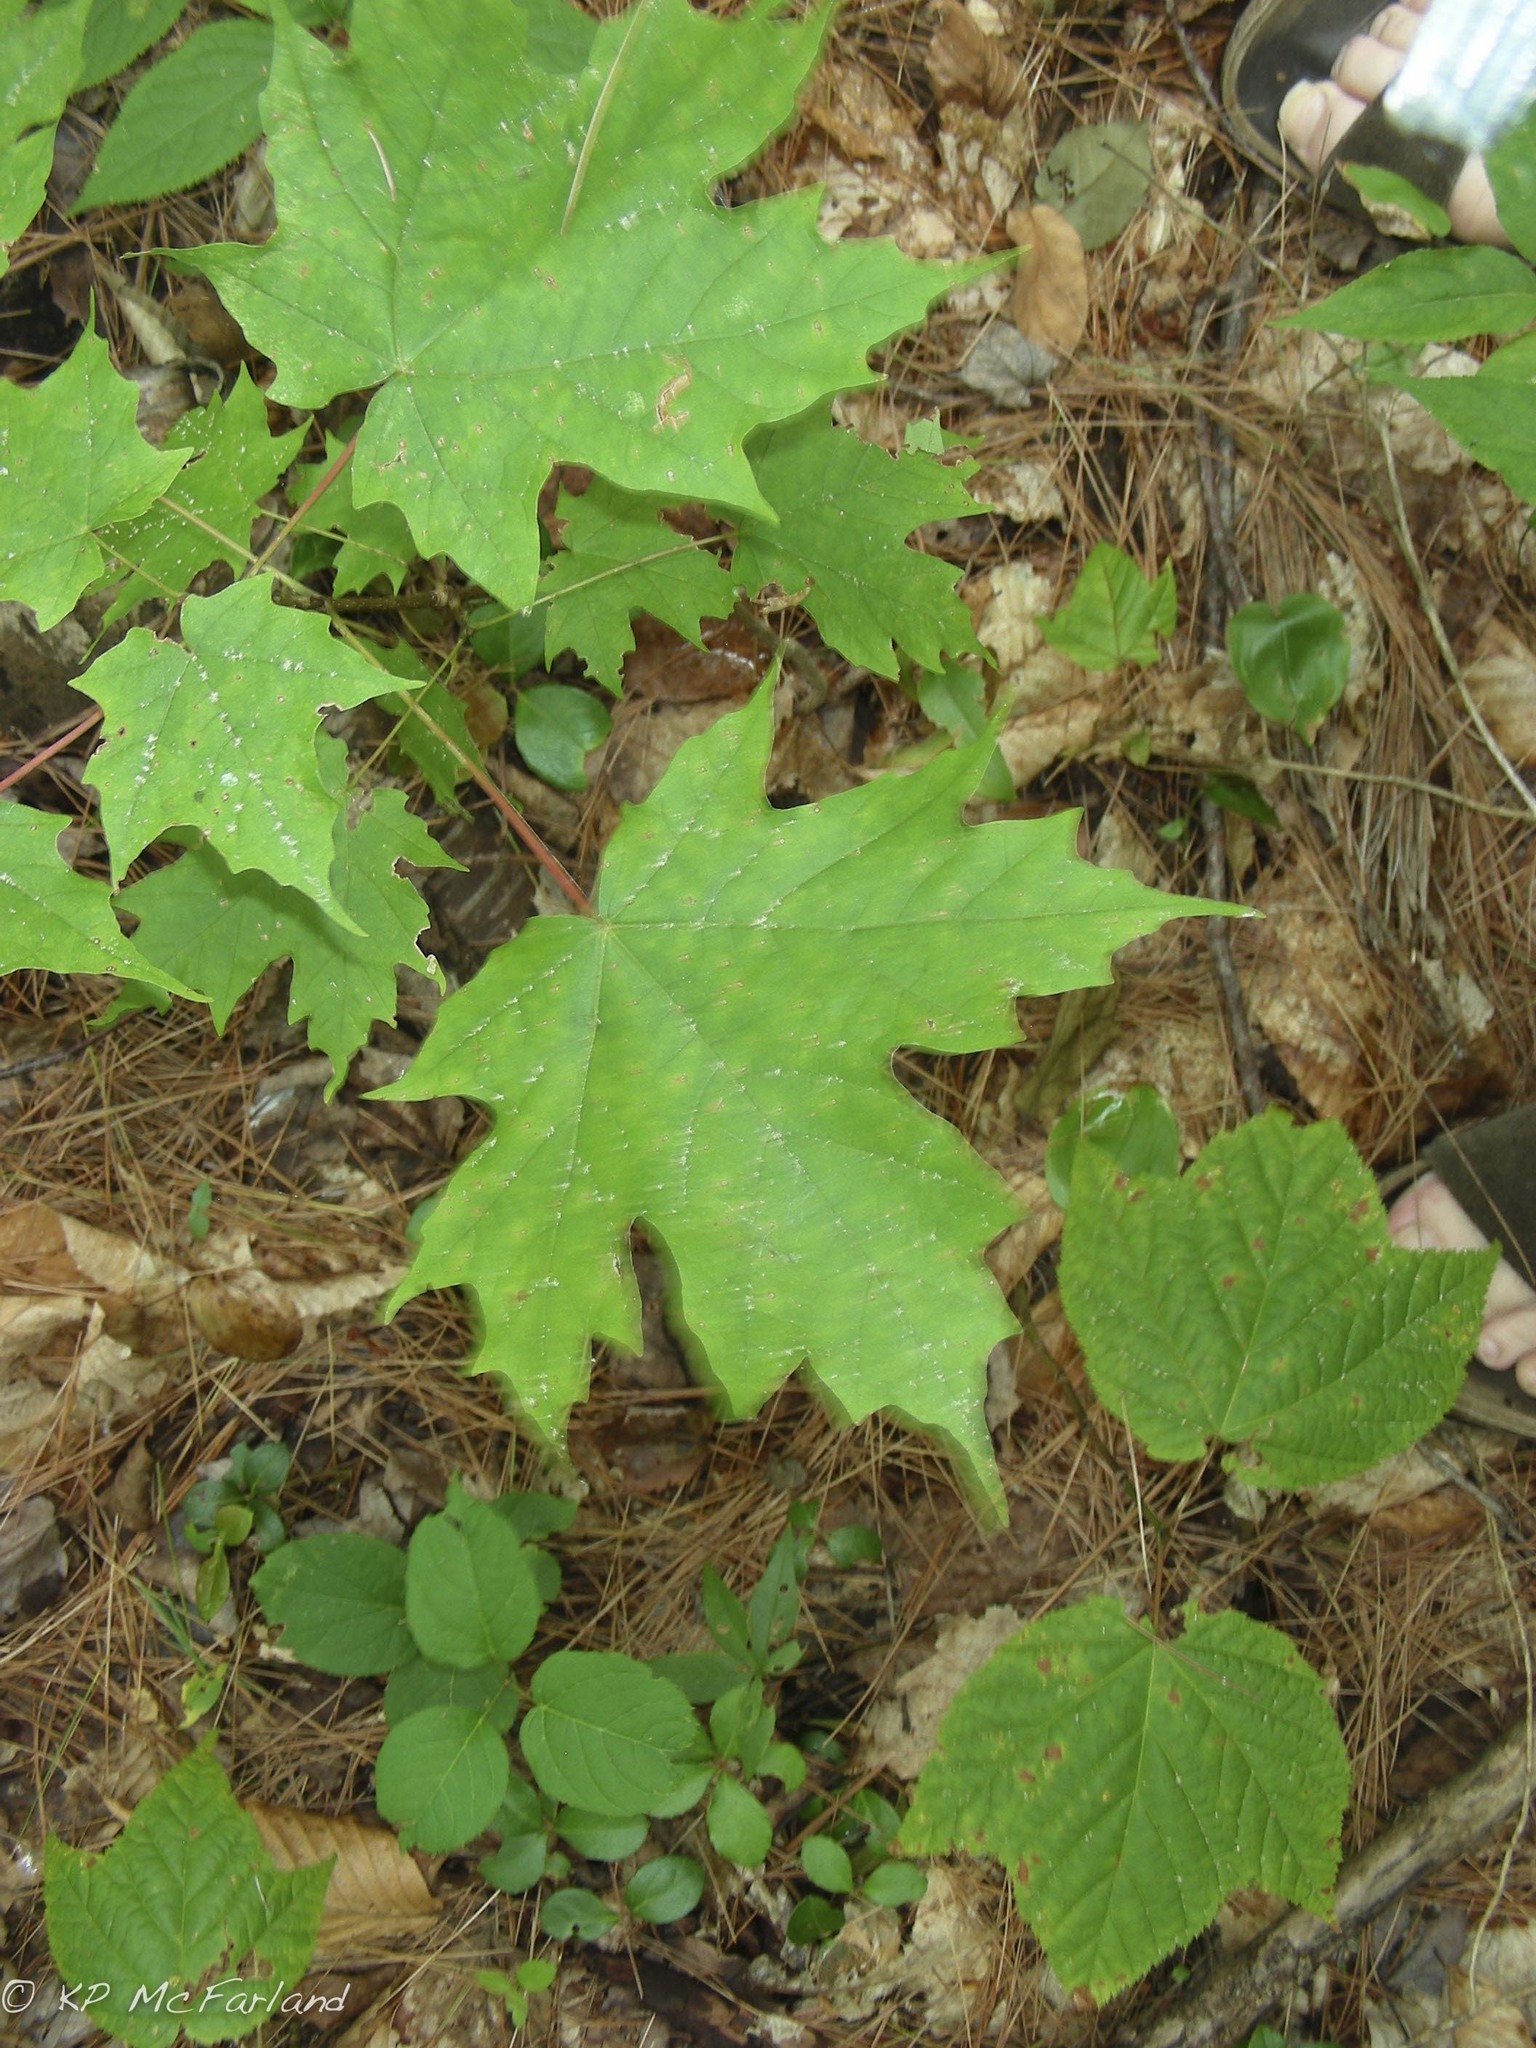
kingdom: Plantae
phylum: Tracheophyta
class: Magnoliopsida
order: Sapindales
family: Sapindaceae
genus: Acer
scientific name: Acer saccharum
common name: Sugar maple
